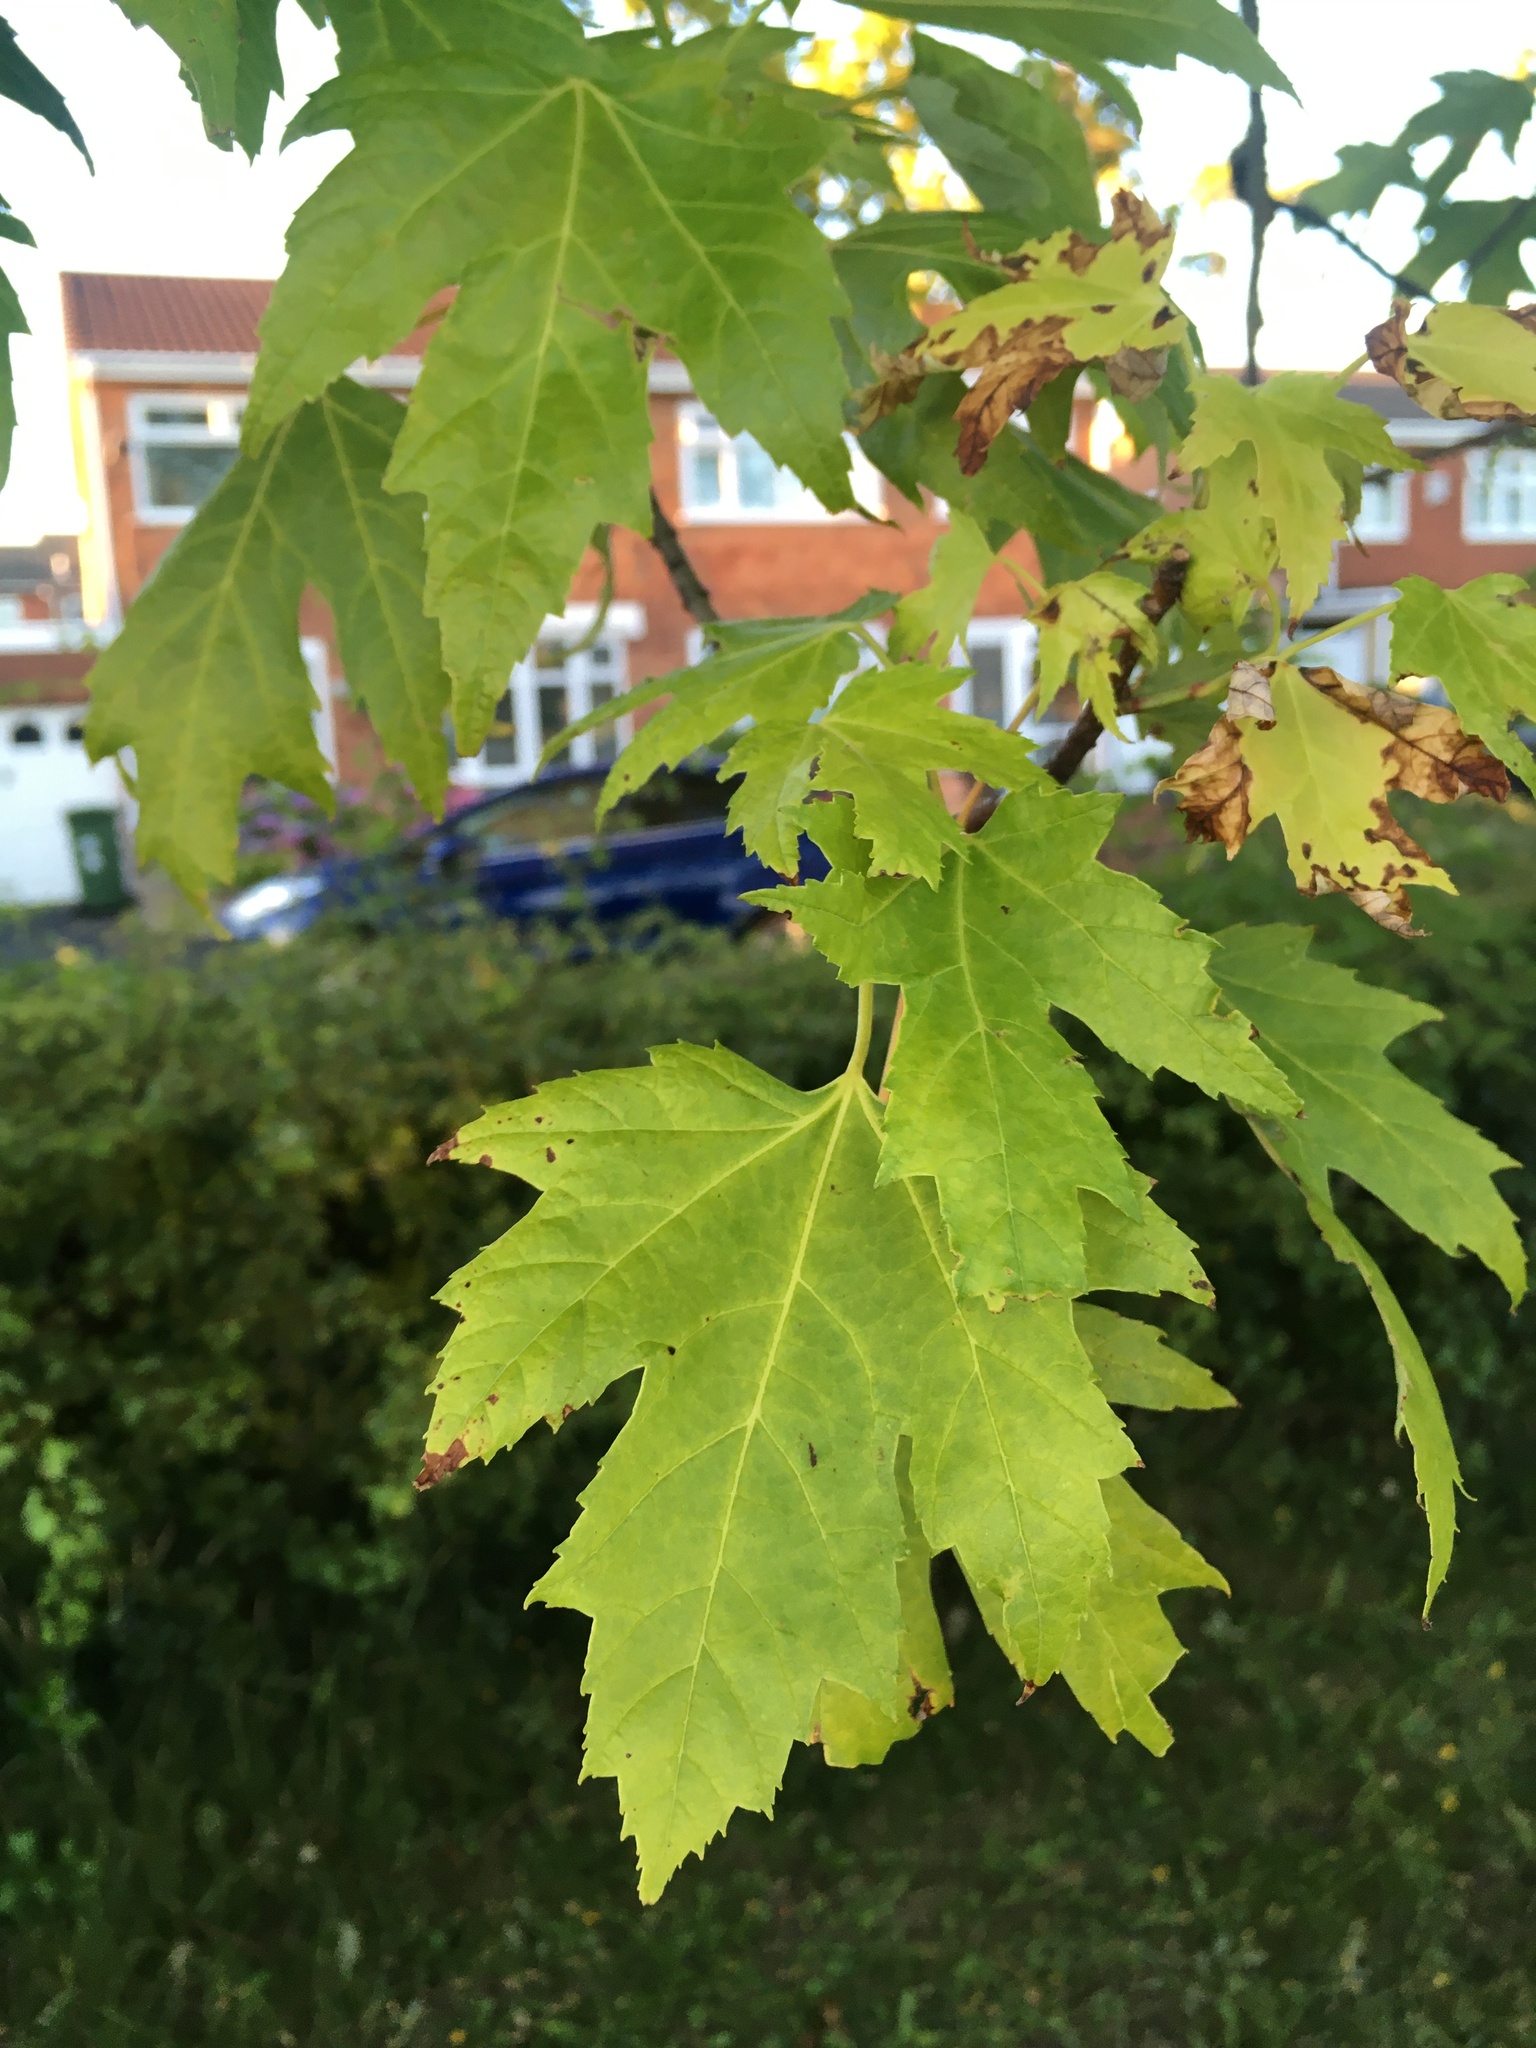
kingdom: Plantae
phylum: Tracheophyta
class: Magnoliopsida
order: Sapindales
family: Sapindaceae
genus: Acer
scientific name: Acer saccharinum
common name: Silver maple
